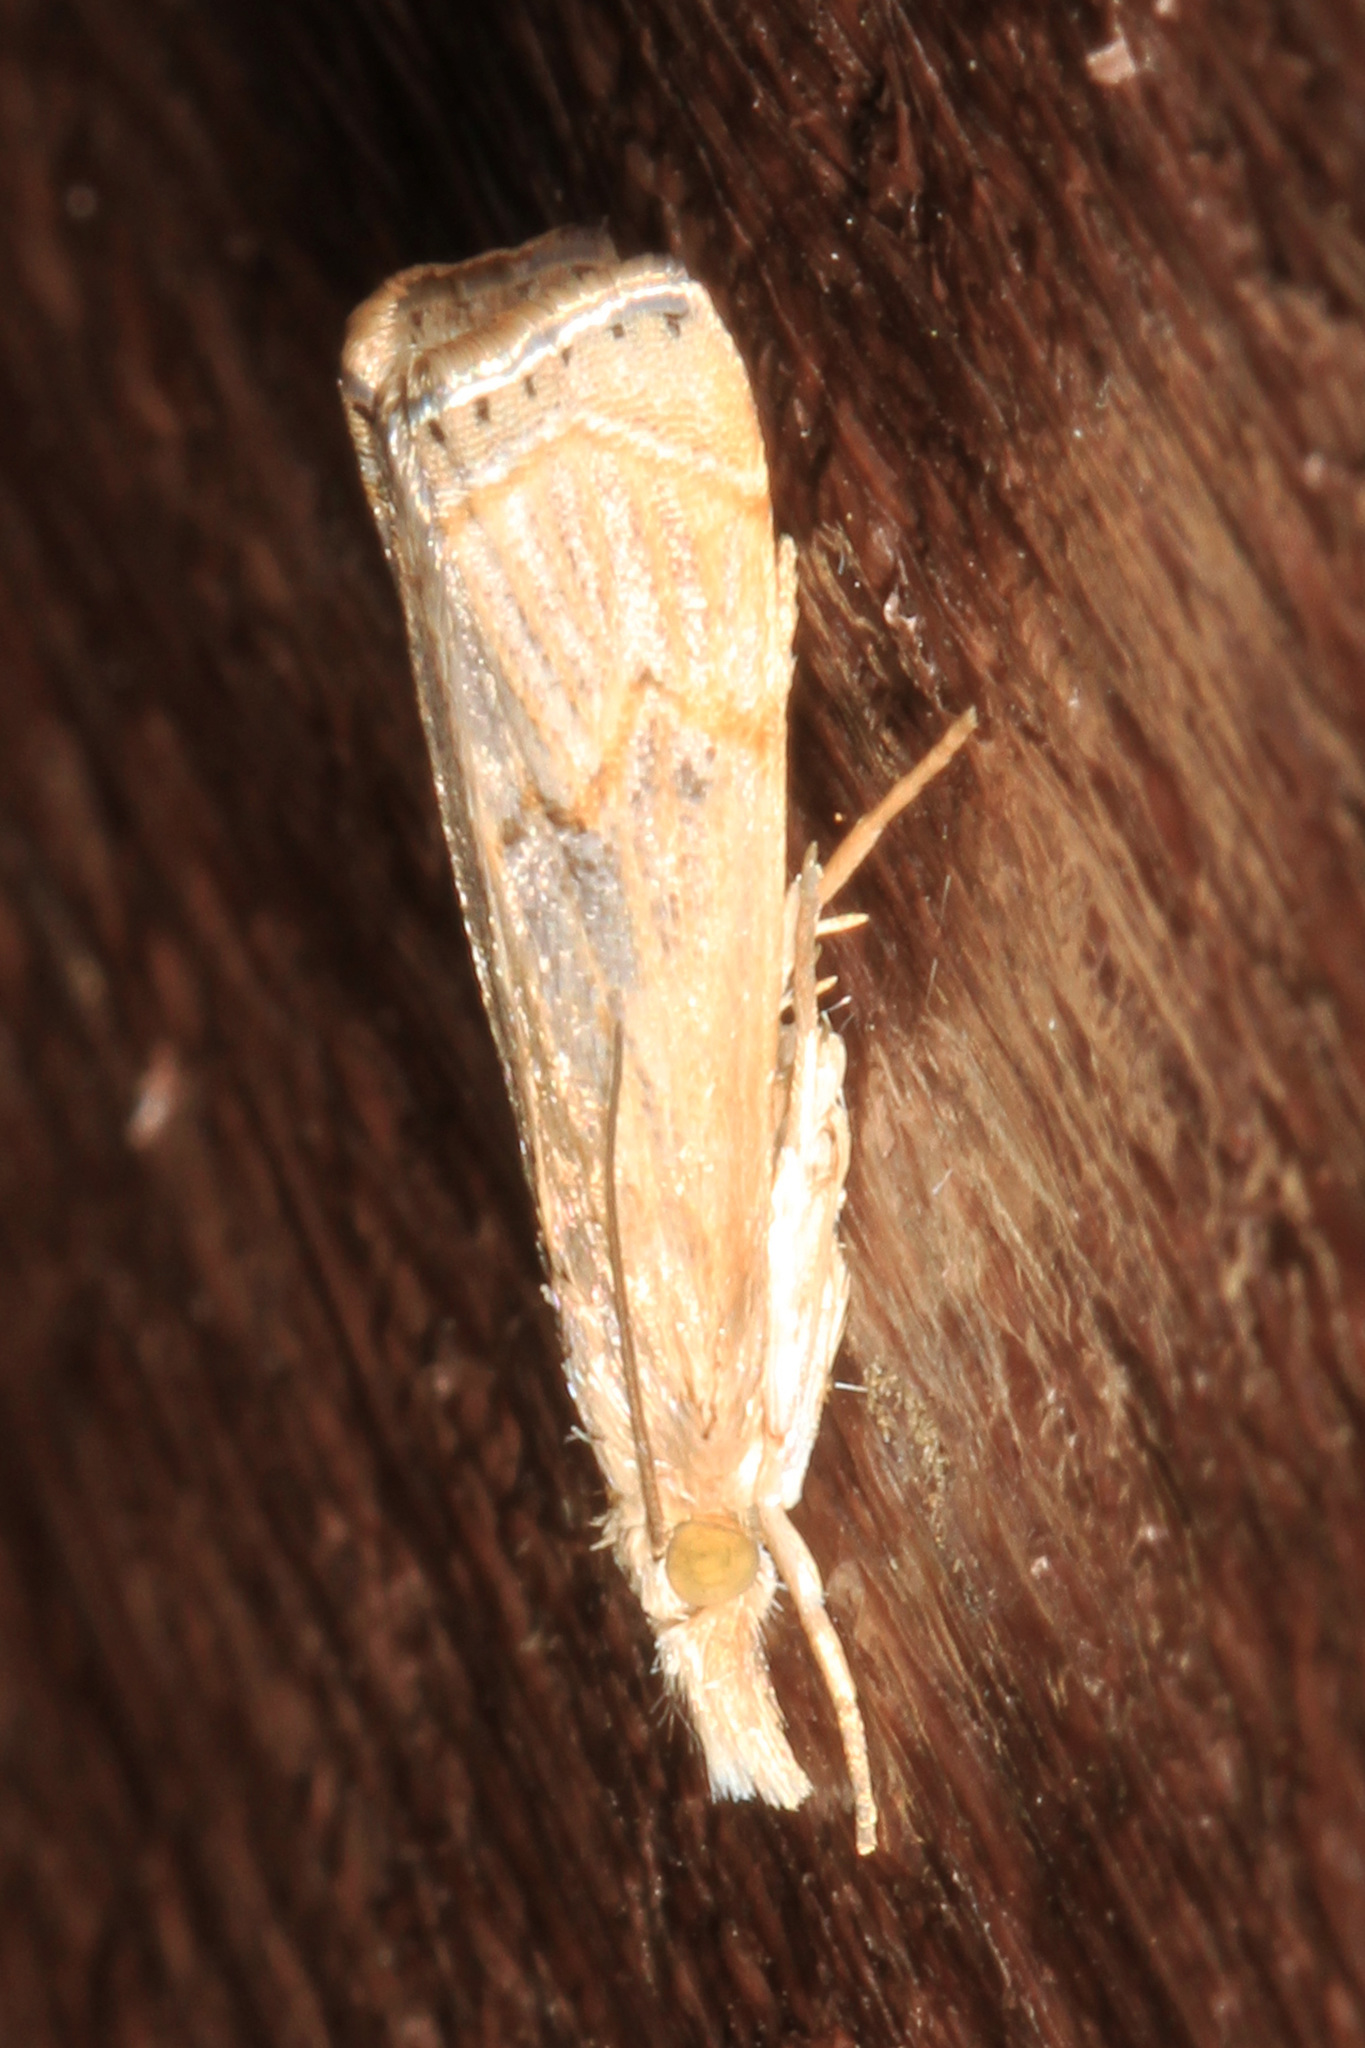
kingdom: Animalia
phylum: Arthropoda
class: Insecta
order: Lepidoptera
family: Crambidae
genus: Parapediasia
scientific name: Parapediasia teterellus
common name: Bluegrass webworm moth
